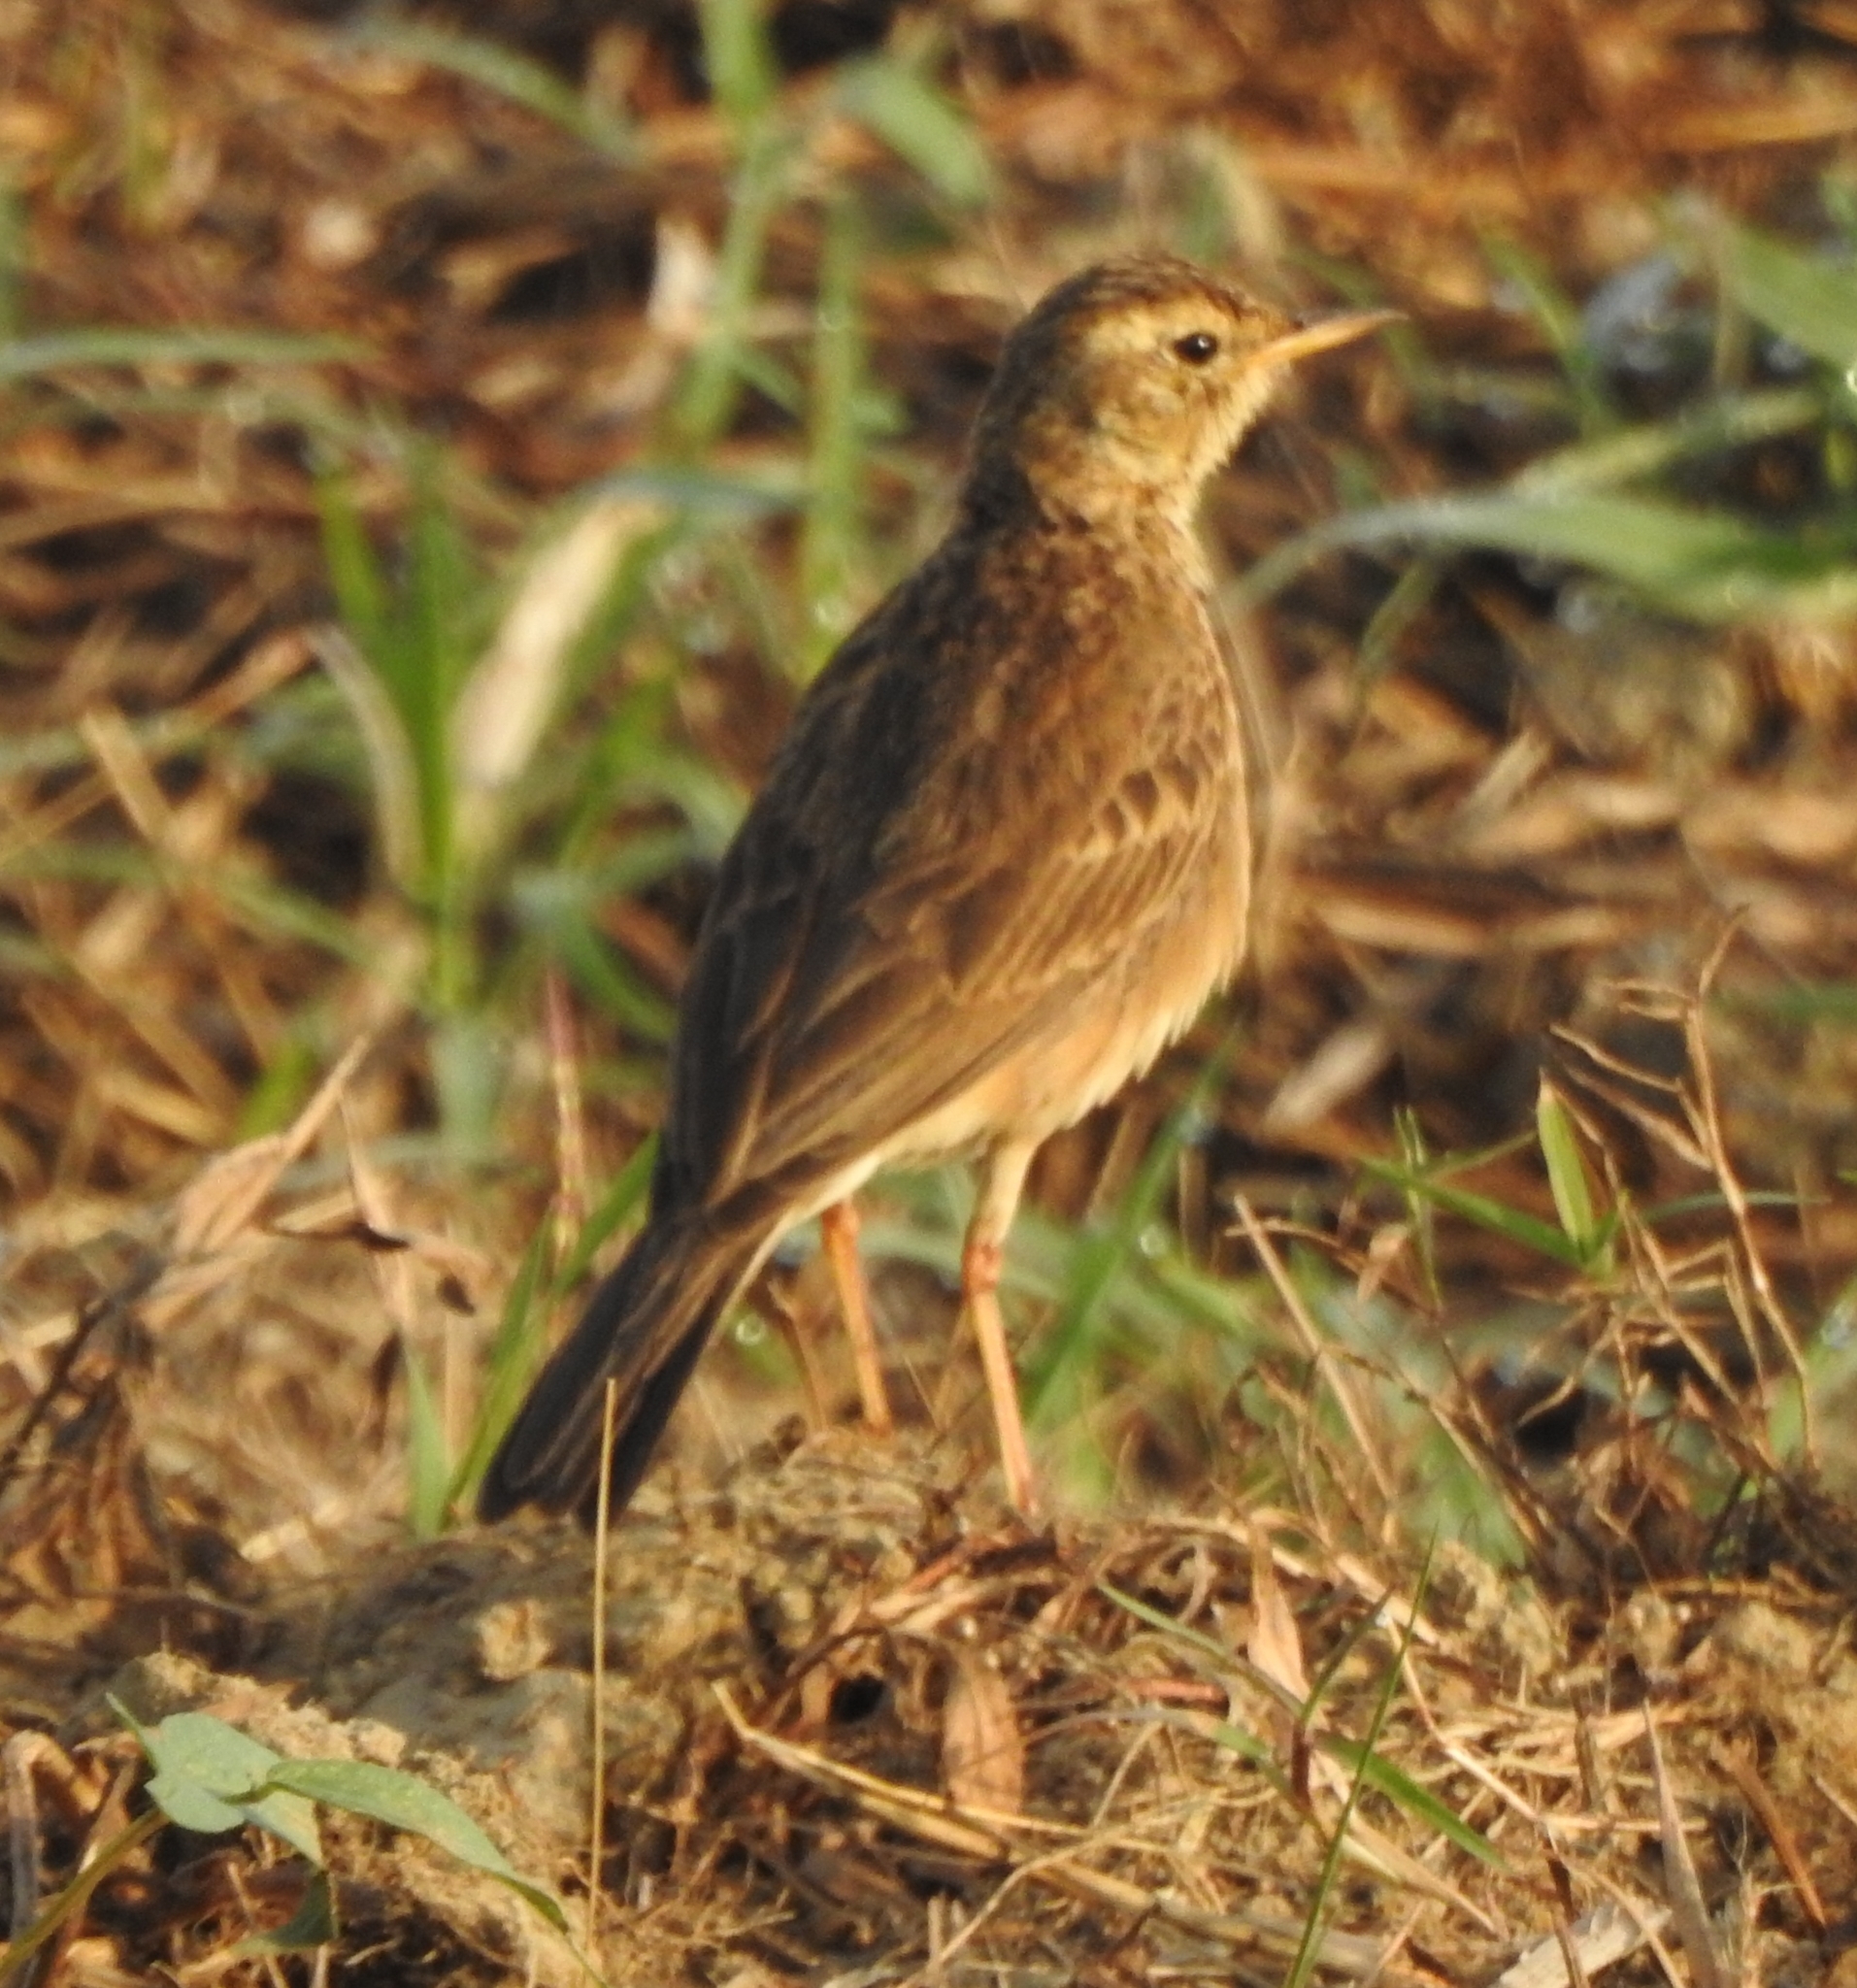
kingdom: Animalia
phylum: Chordata
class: Aves
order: Passeriformes
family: Motacillidae
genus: Anthus
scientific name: Anthus rufulus
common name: Paddyfield pipit
